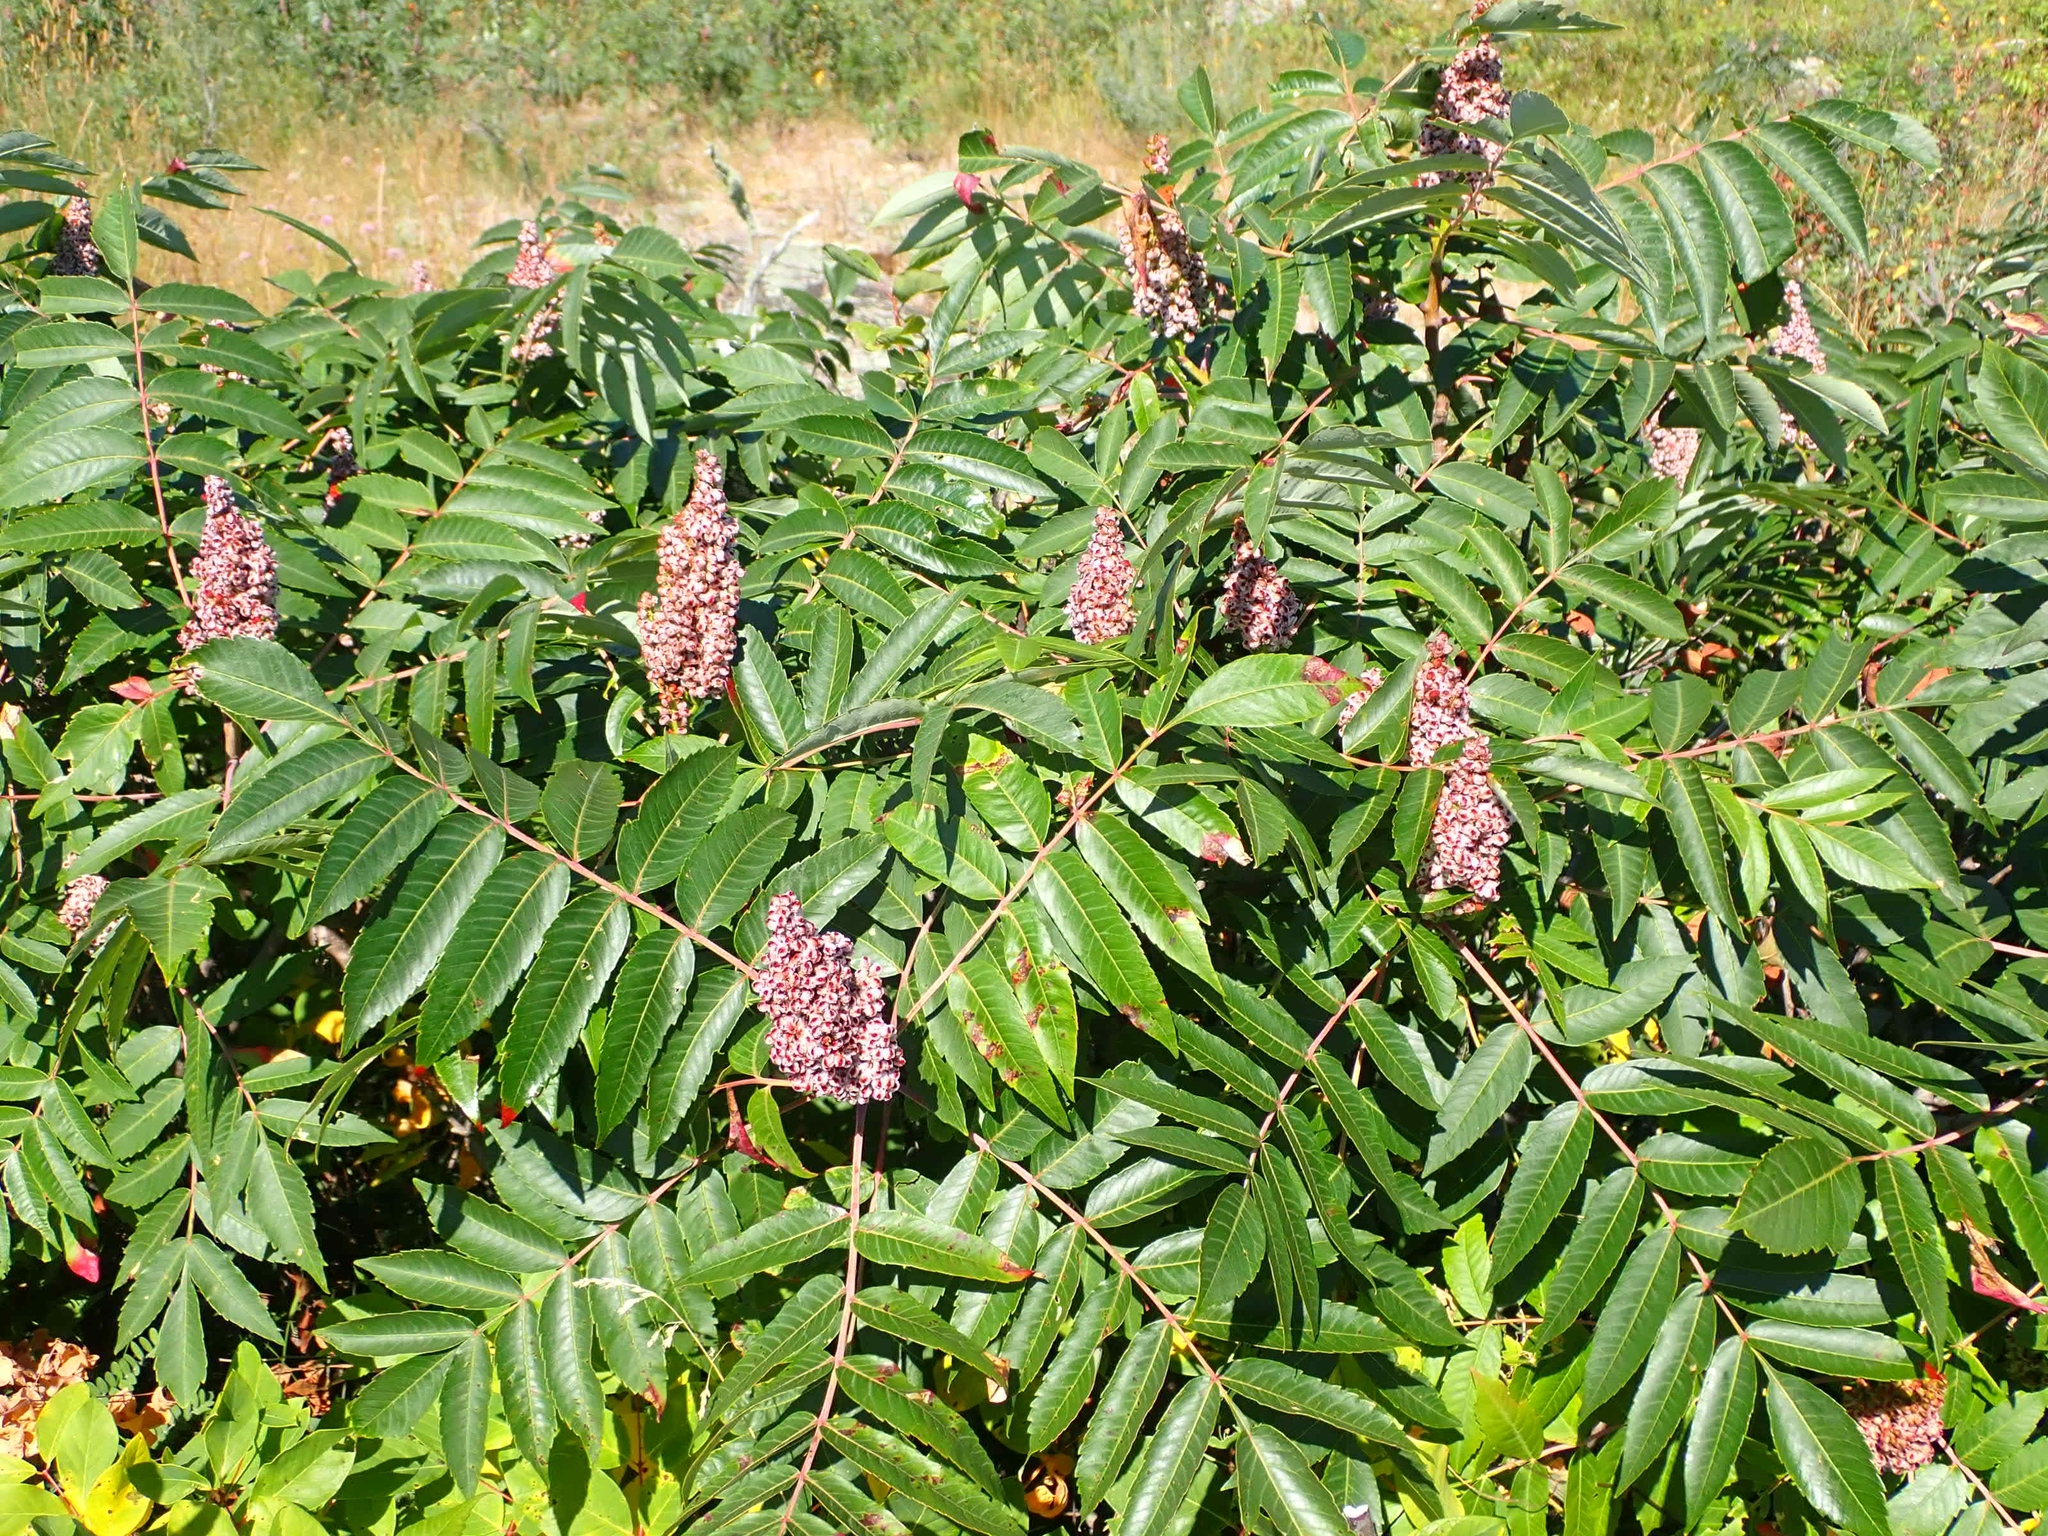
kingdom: Plantae
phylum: Tracheophyta
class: Magnoliopsida
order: Sapindales
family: Anacardiaceae
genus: Rhus
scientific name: Rhus glabra
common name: Scarlet sumac
